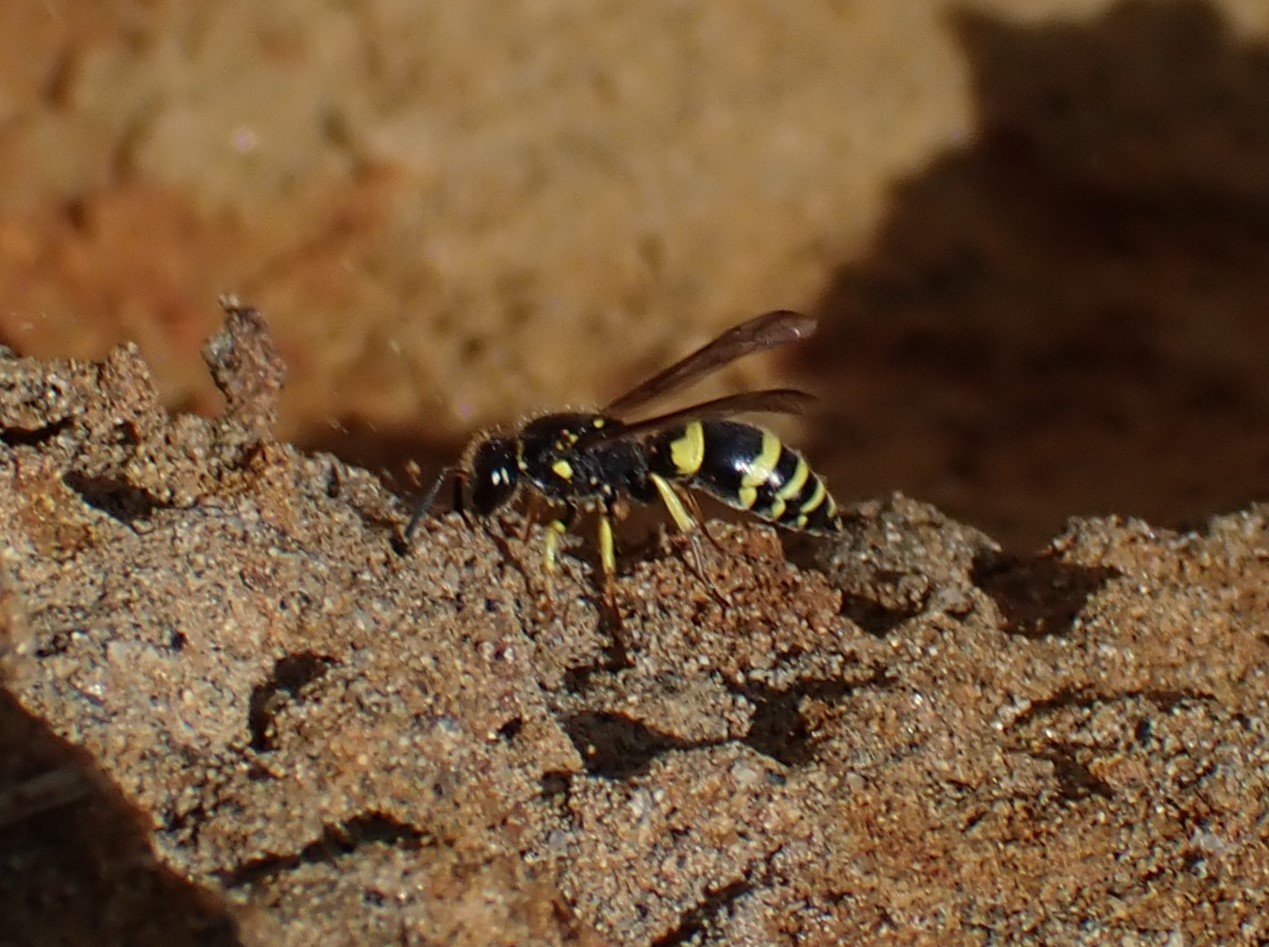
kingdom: Animalia
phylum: Arthropoda
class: Insecta
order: Hymenoptera
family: Vespidae
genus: Ancistrocerus
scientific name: Ancistrocerus gazella
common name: European tube wasp
